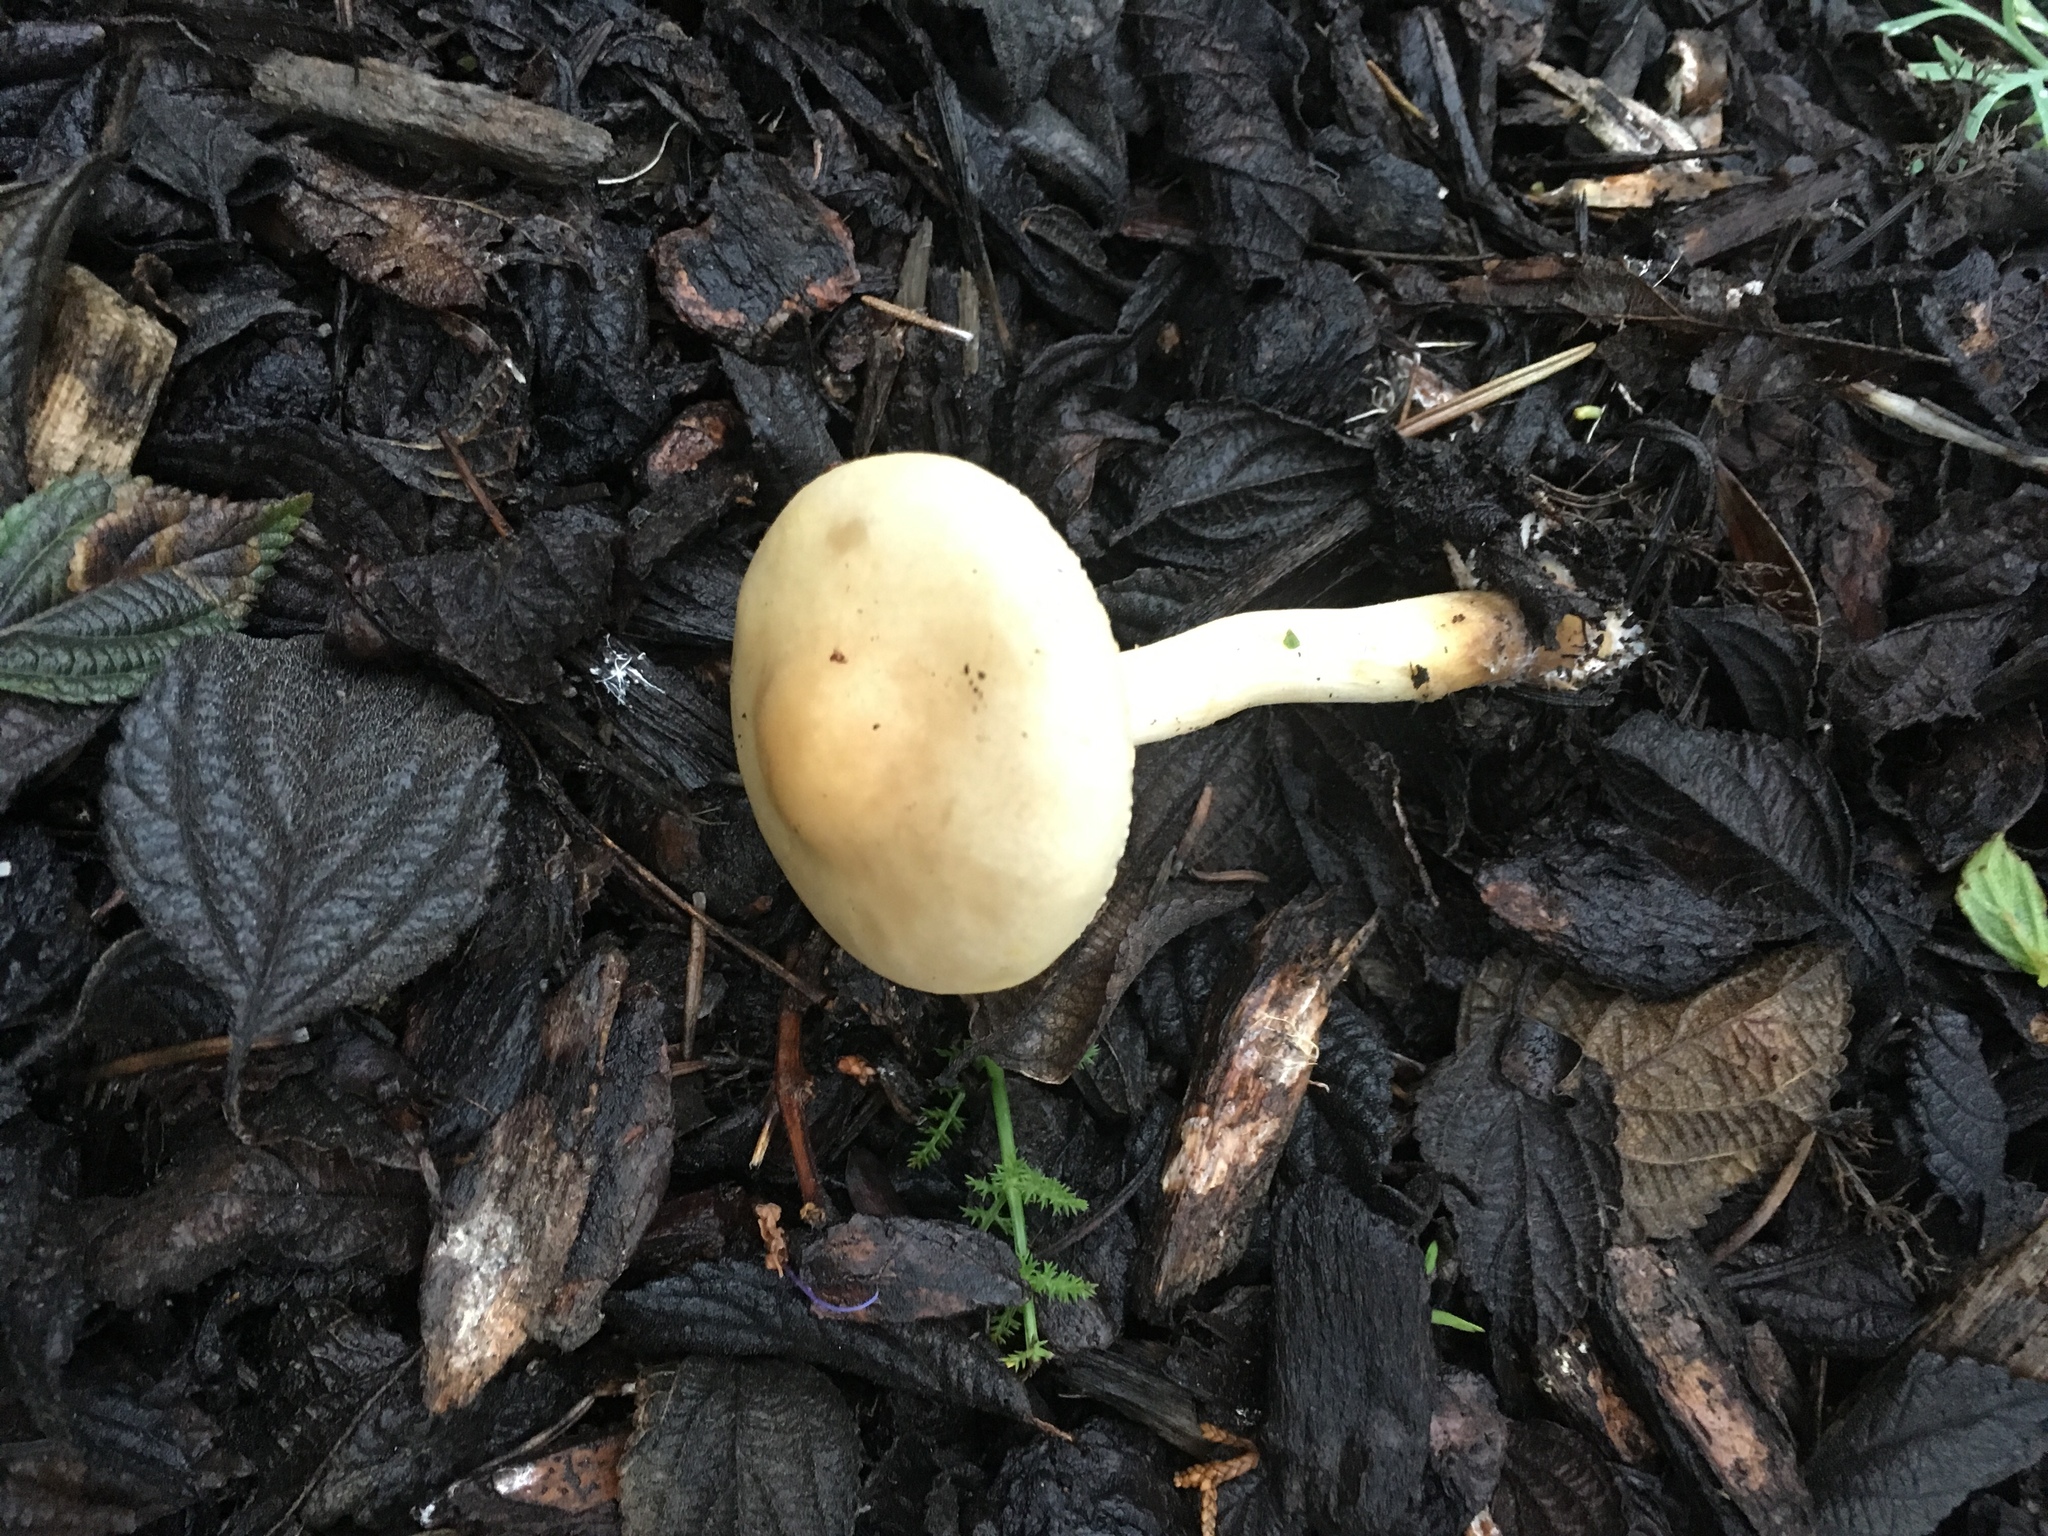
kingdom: Fungi
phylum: Basidiomycota
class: Agaricomycetes
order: Agaricales
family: Strophariaceae
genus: Leratiomyces
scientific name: Leratiomyces percevalii
